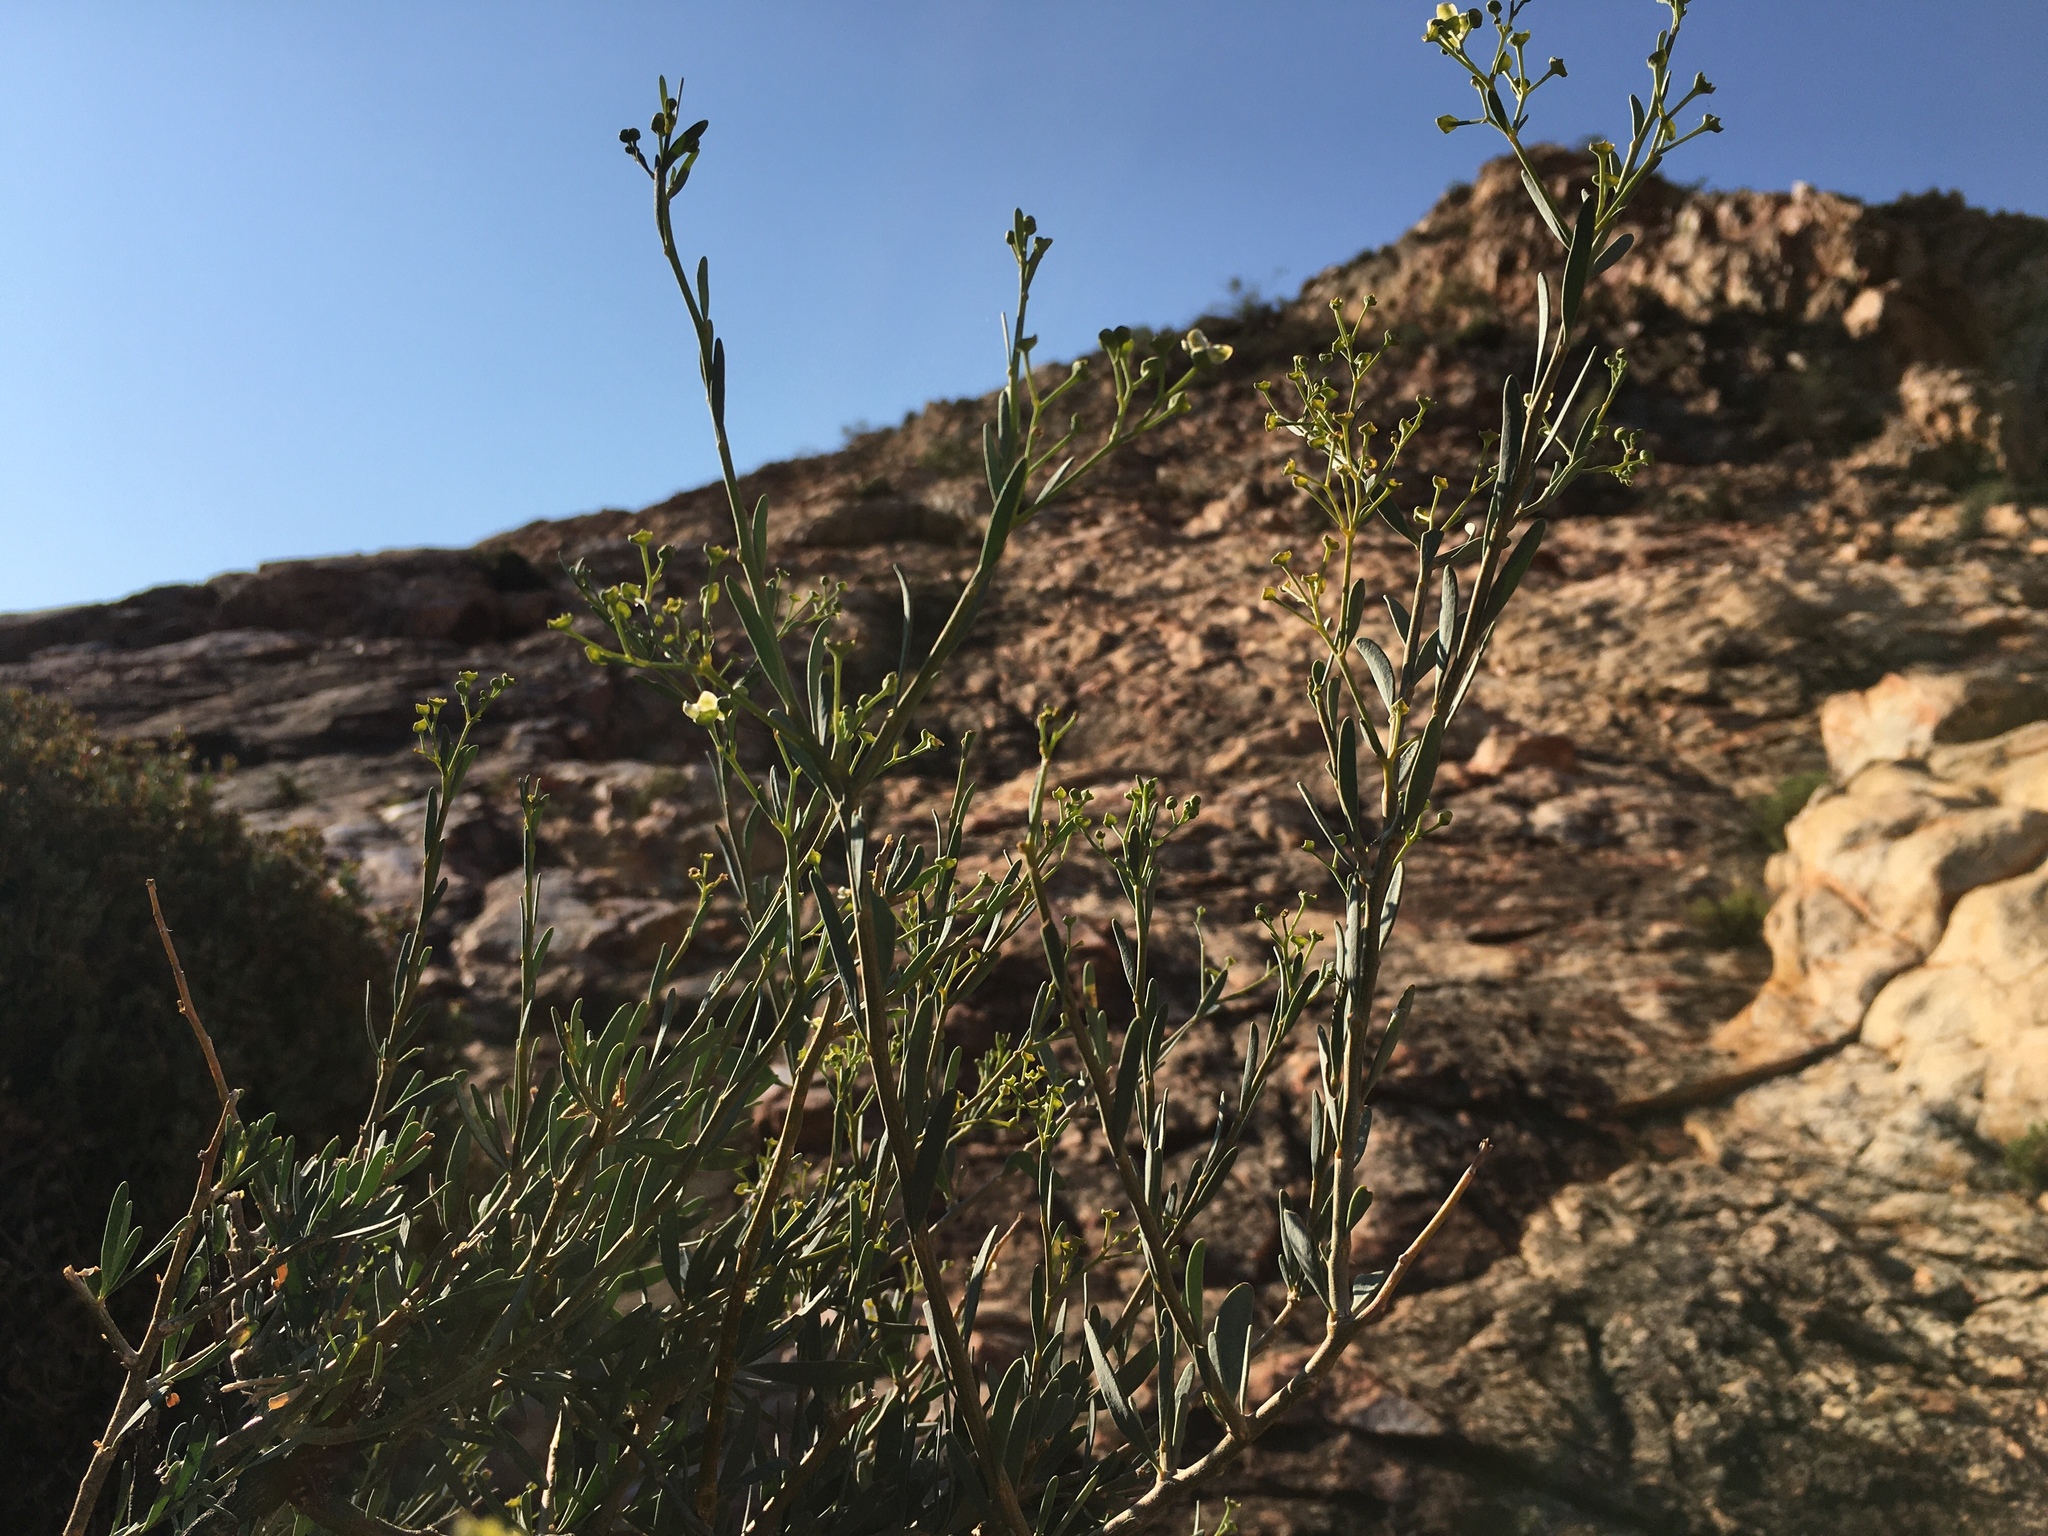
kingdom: Plantae
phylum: Tracheophyta
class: Magnoliopsida
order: Solanales
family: Montiniaceae
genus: Montinia
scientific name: Montinia caryophyllacea
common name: Wild clove-bush
